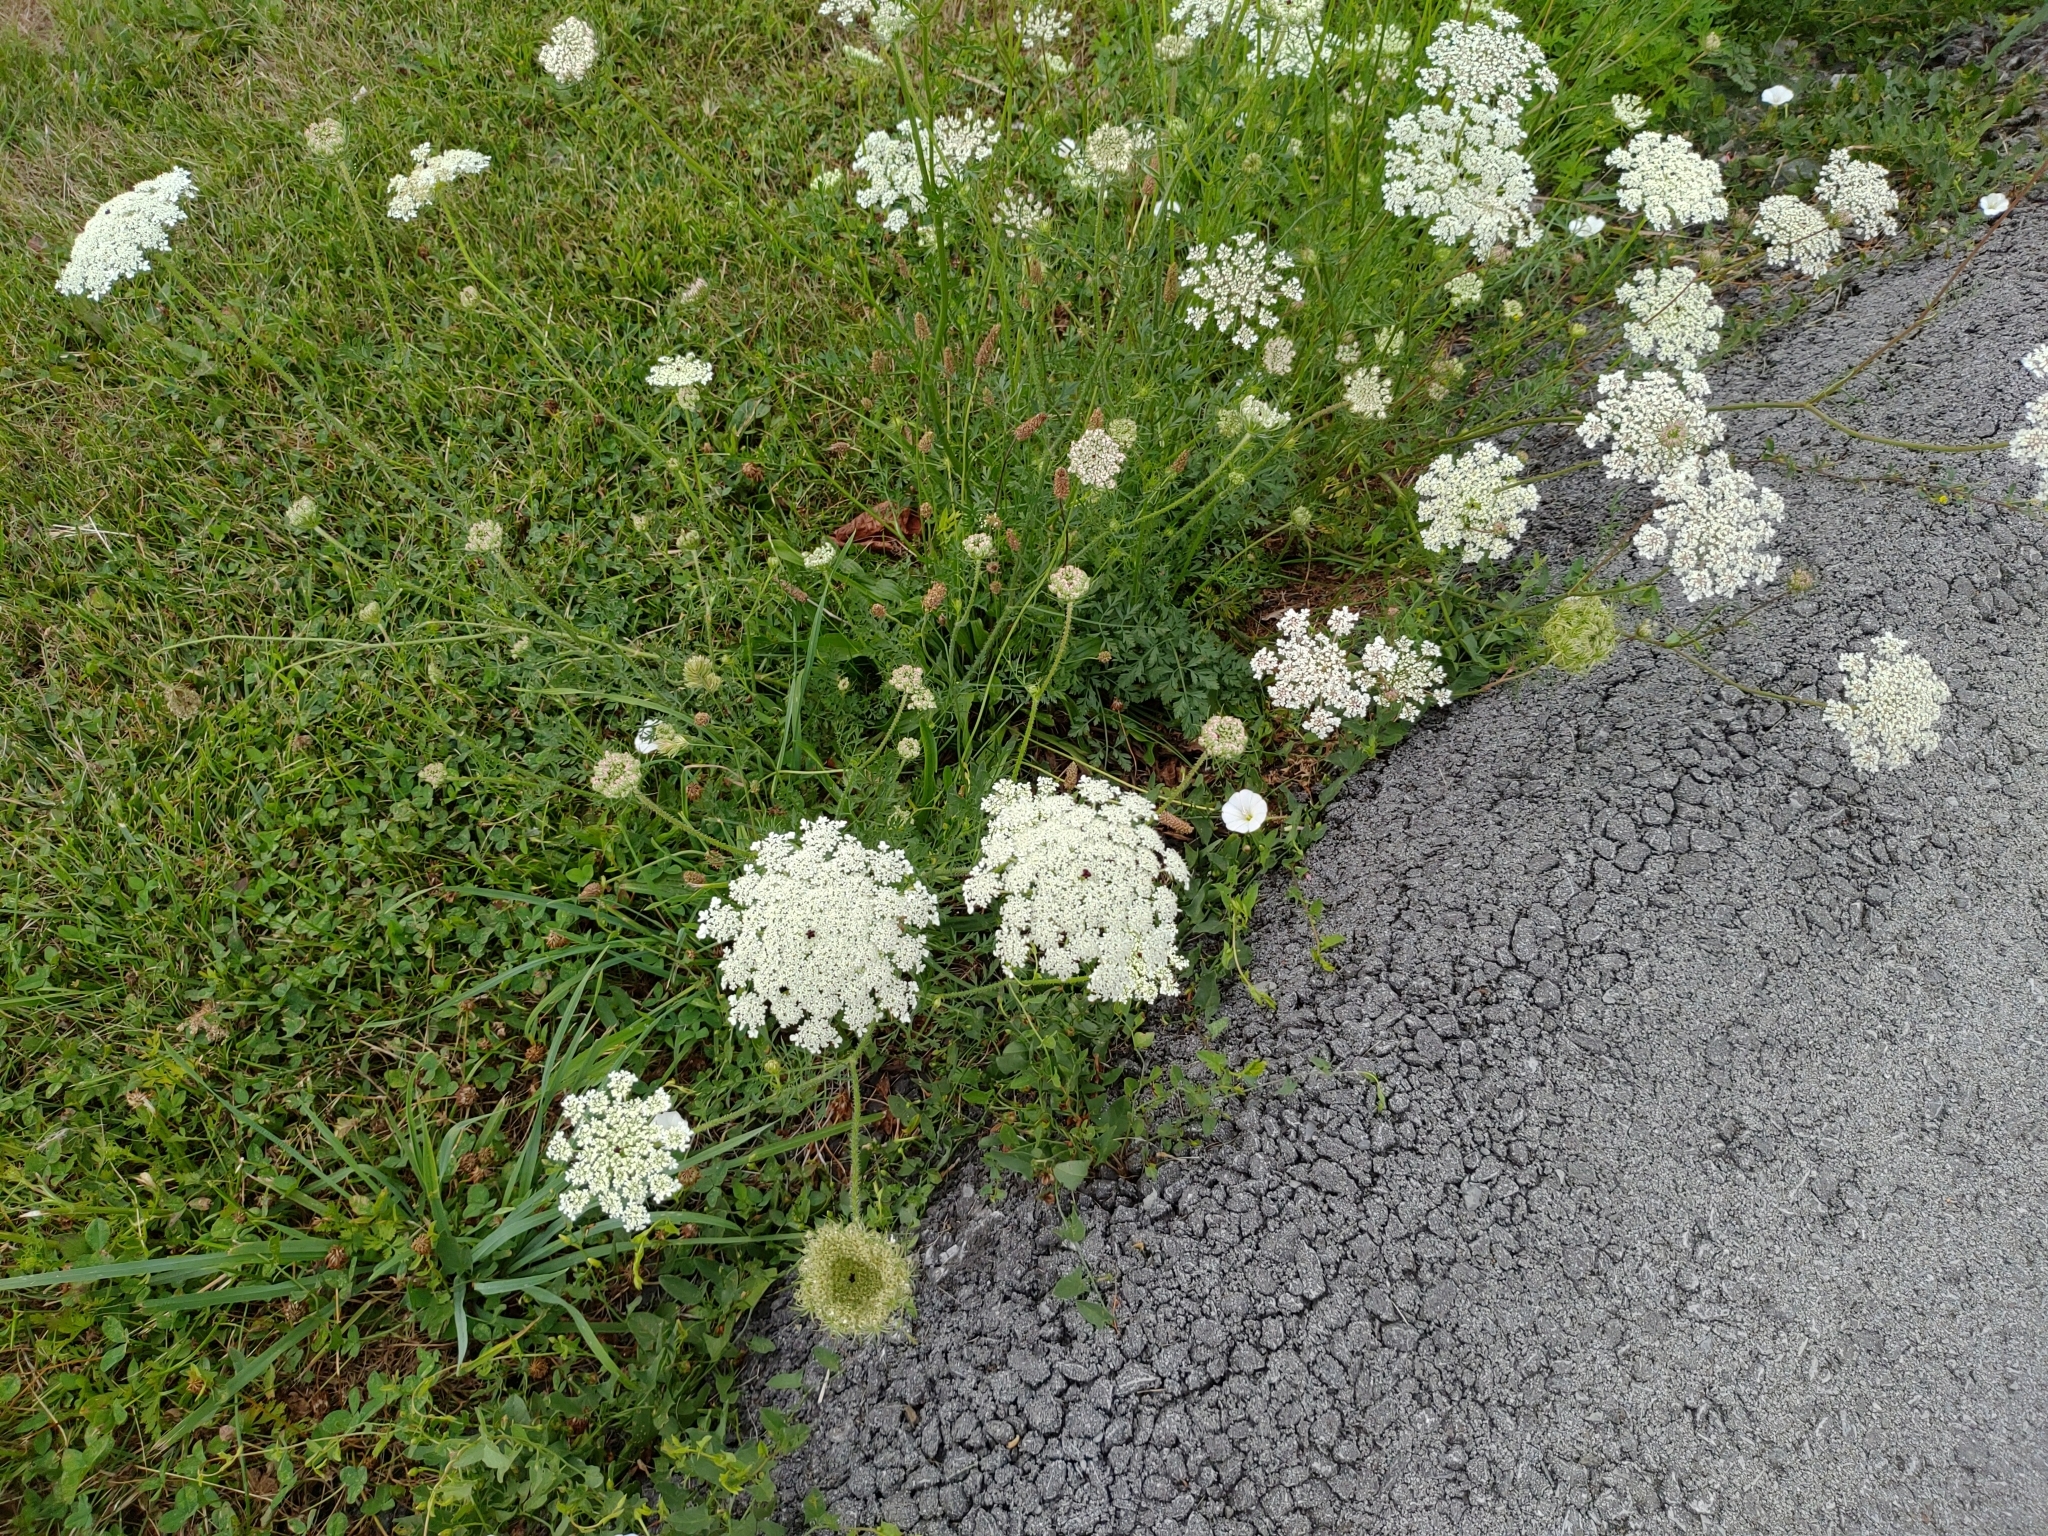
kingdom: Plantae
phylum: Tracheophyta
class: Magnoliopsida
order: Apiales
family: Apiaceae
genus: Daucus
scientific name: Daucus carota
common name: Wild carrot
